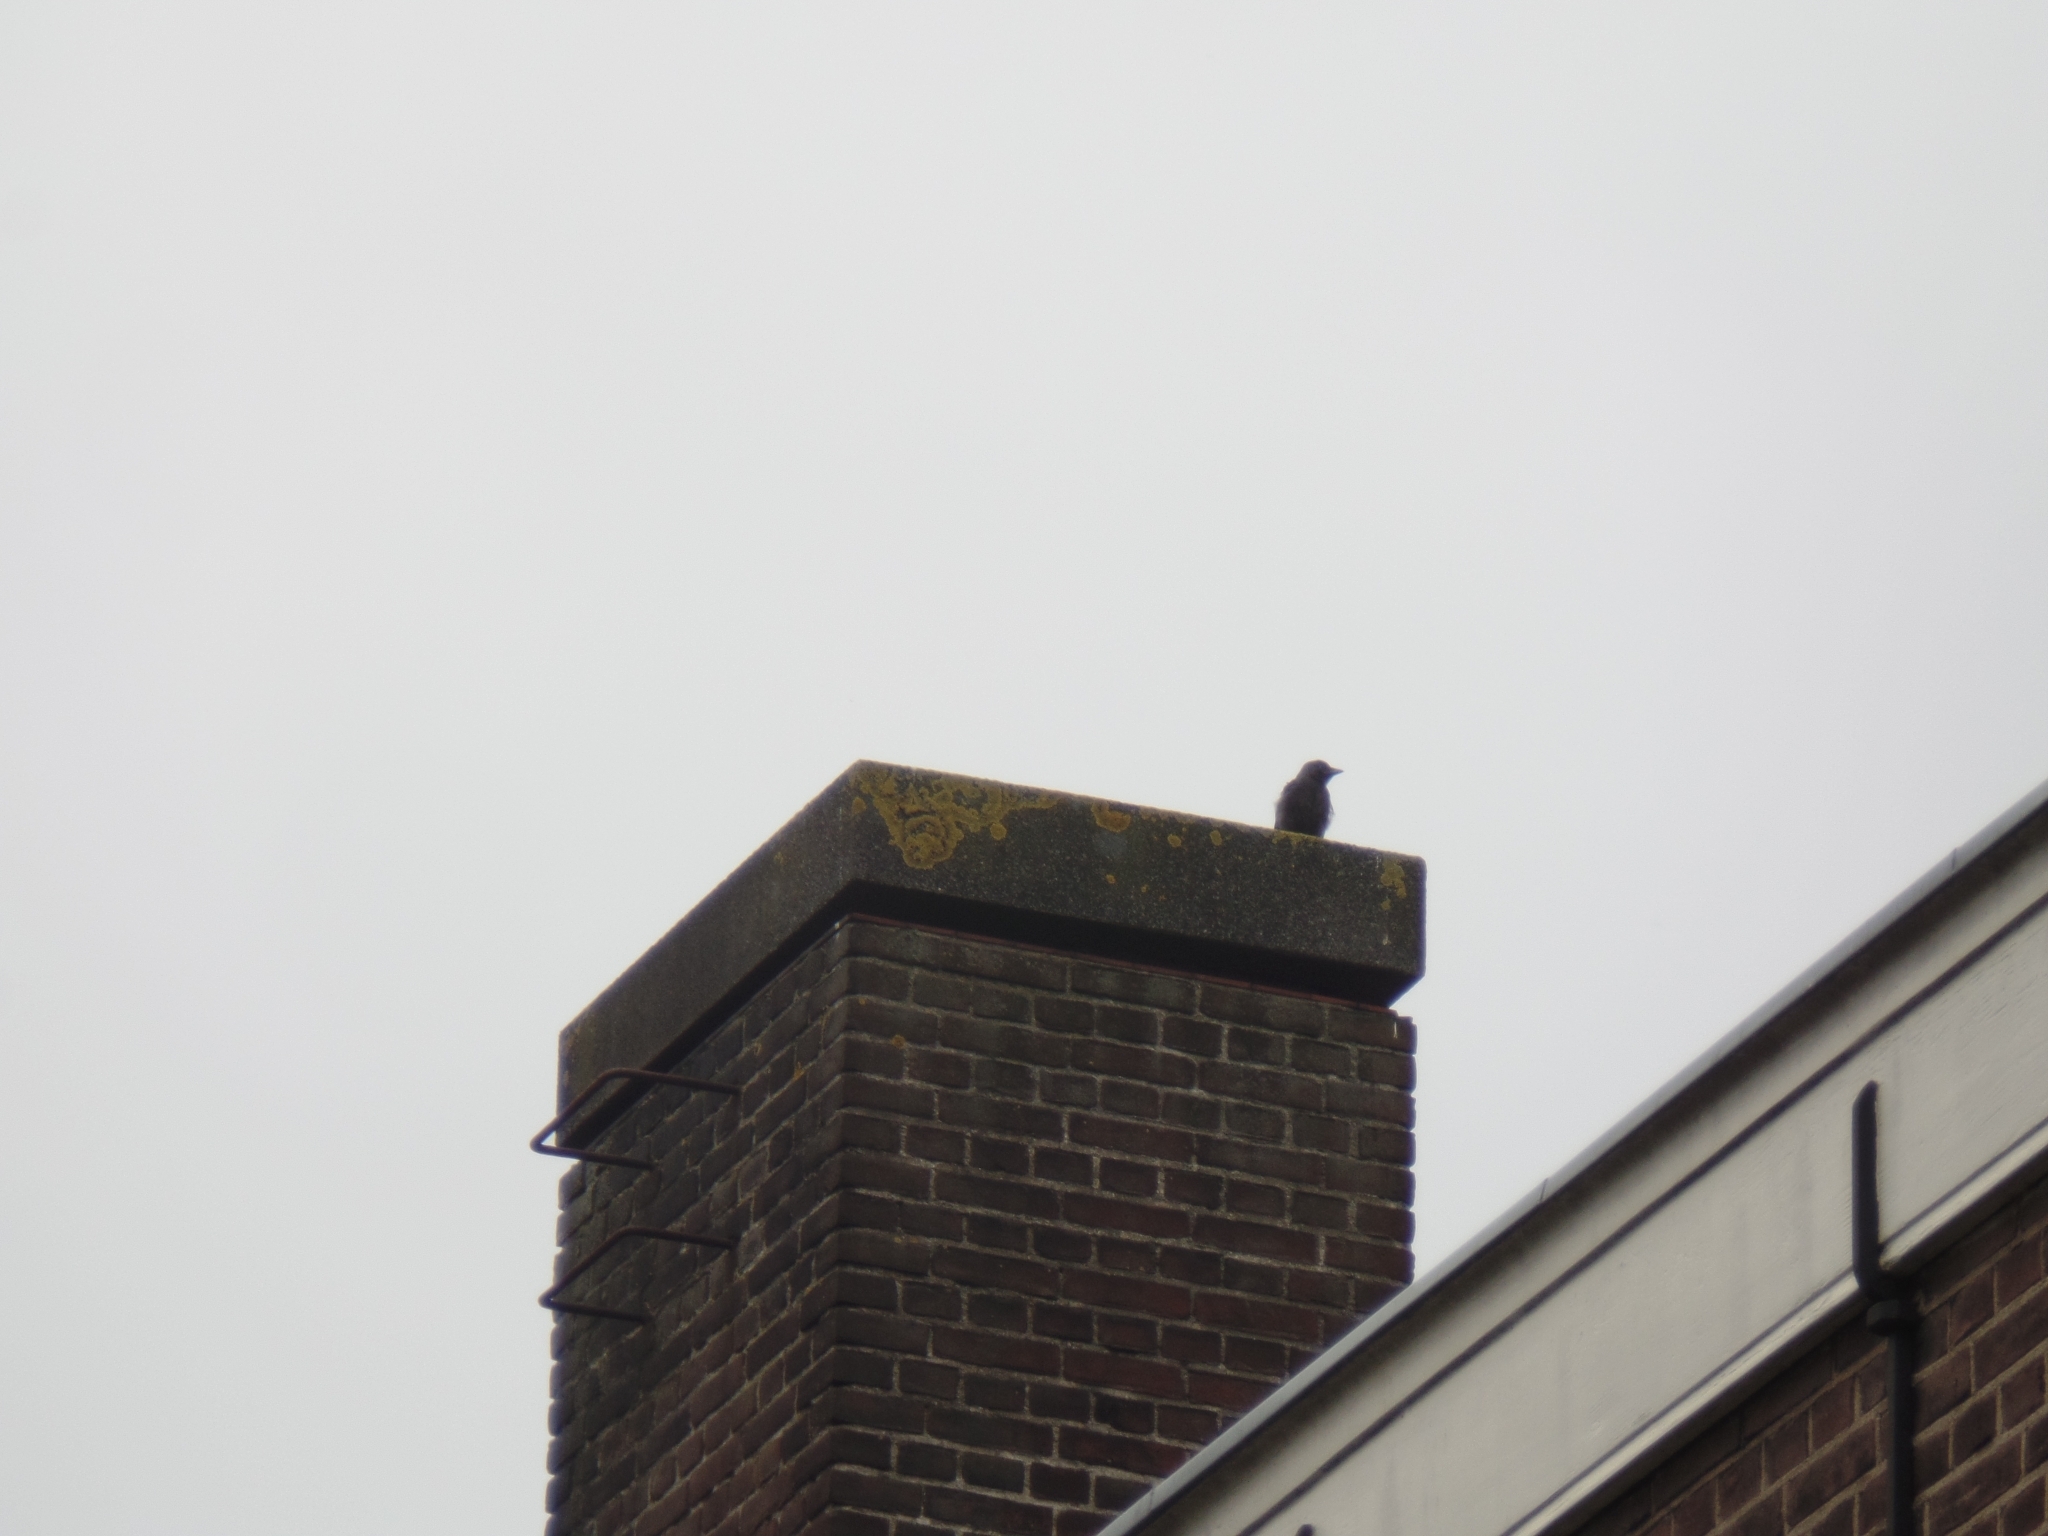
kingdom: Animalia
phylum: Chordata
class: Aves
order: Passeriformes
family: Corvidae
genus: Coloeus
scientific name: Coloeus monedula
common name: Western jackdaw
